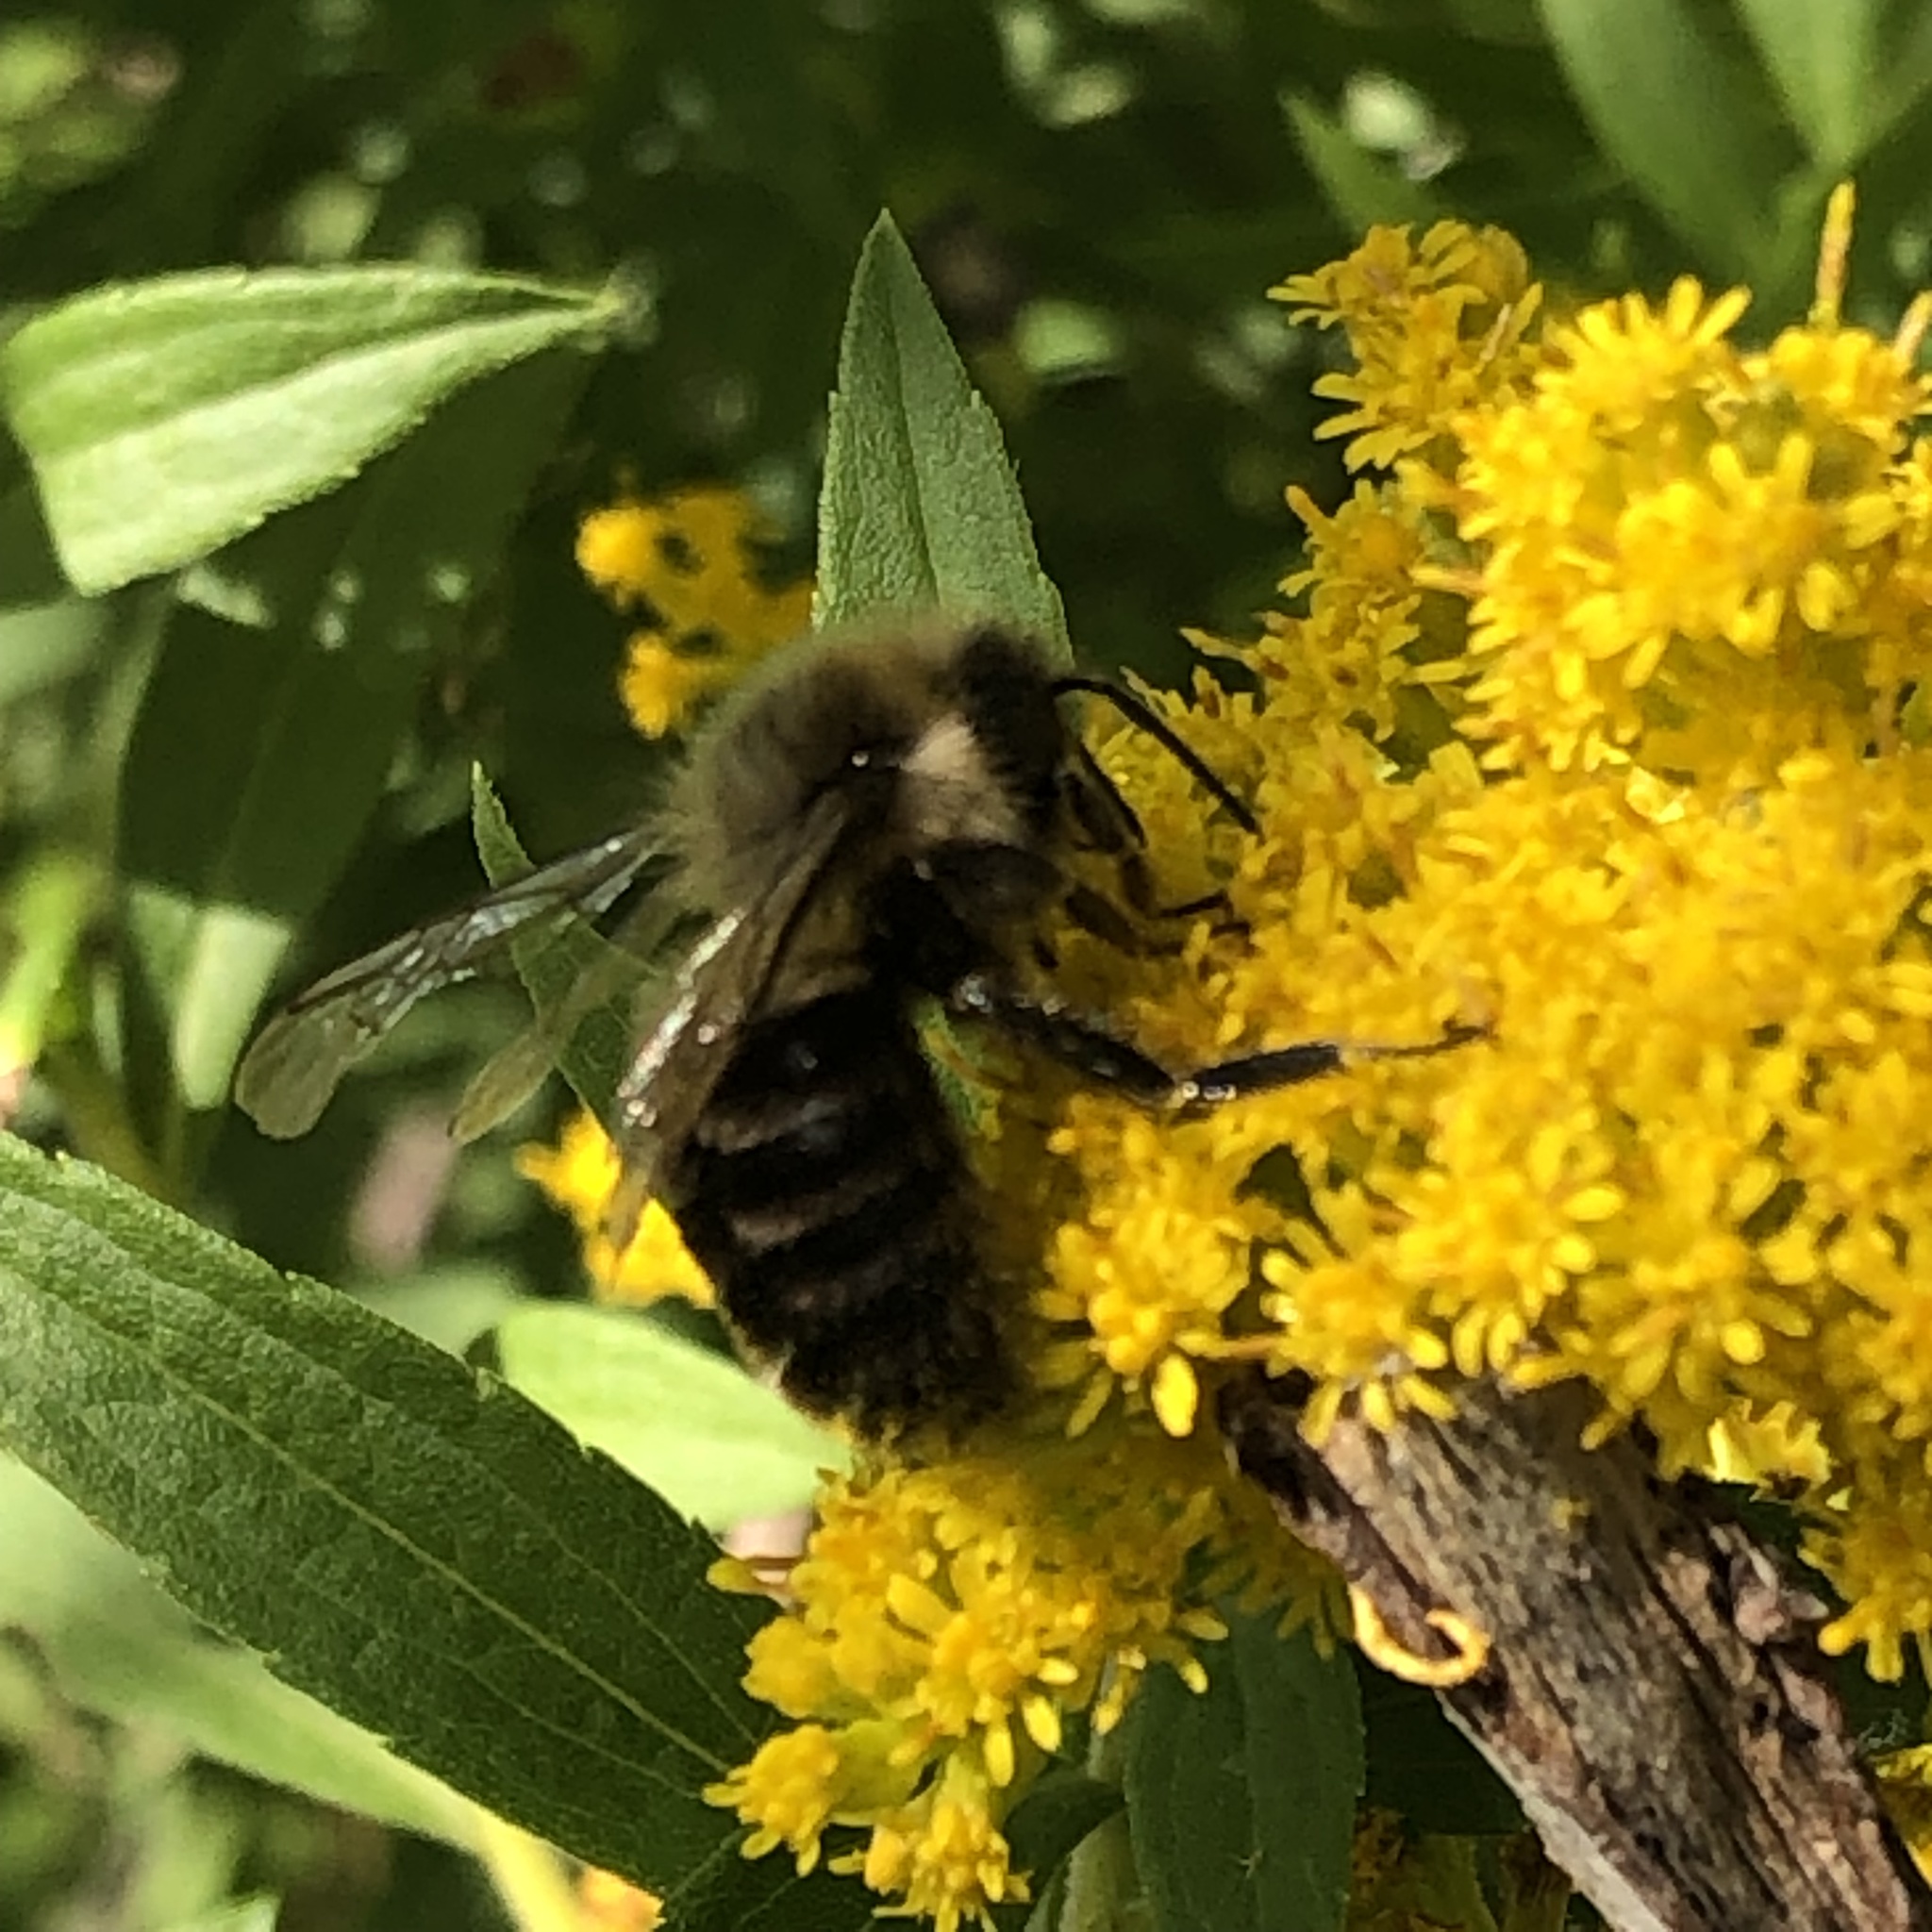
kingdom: Animalia
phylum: Arthropoda
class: Insecta
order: Hymenoptera
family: Apidae
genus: Bombus
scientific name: Bombus impatiens
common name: Common eastern bumble bee
